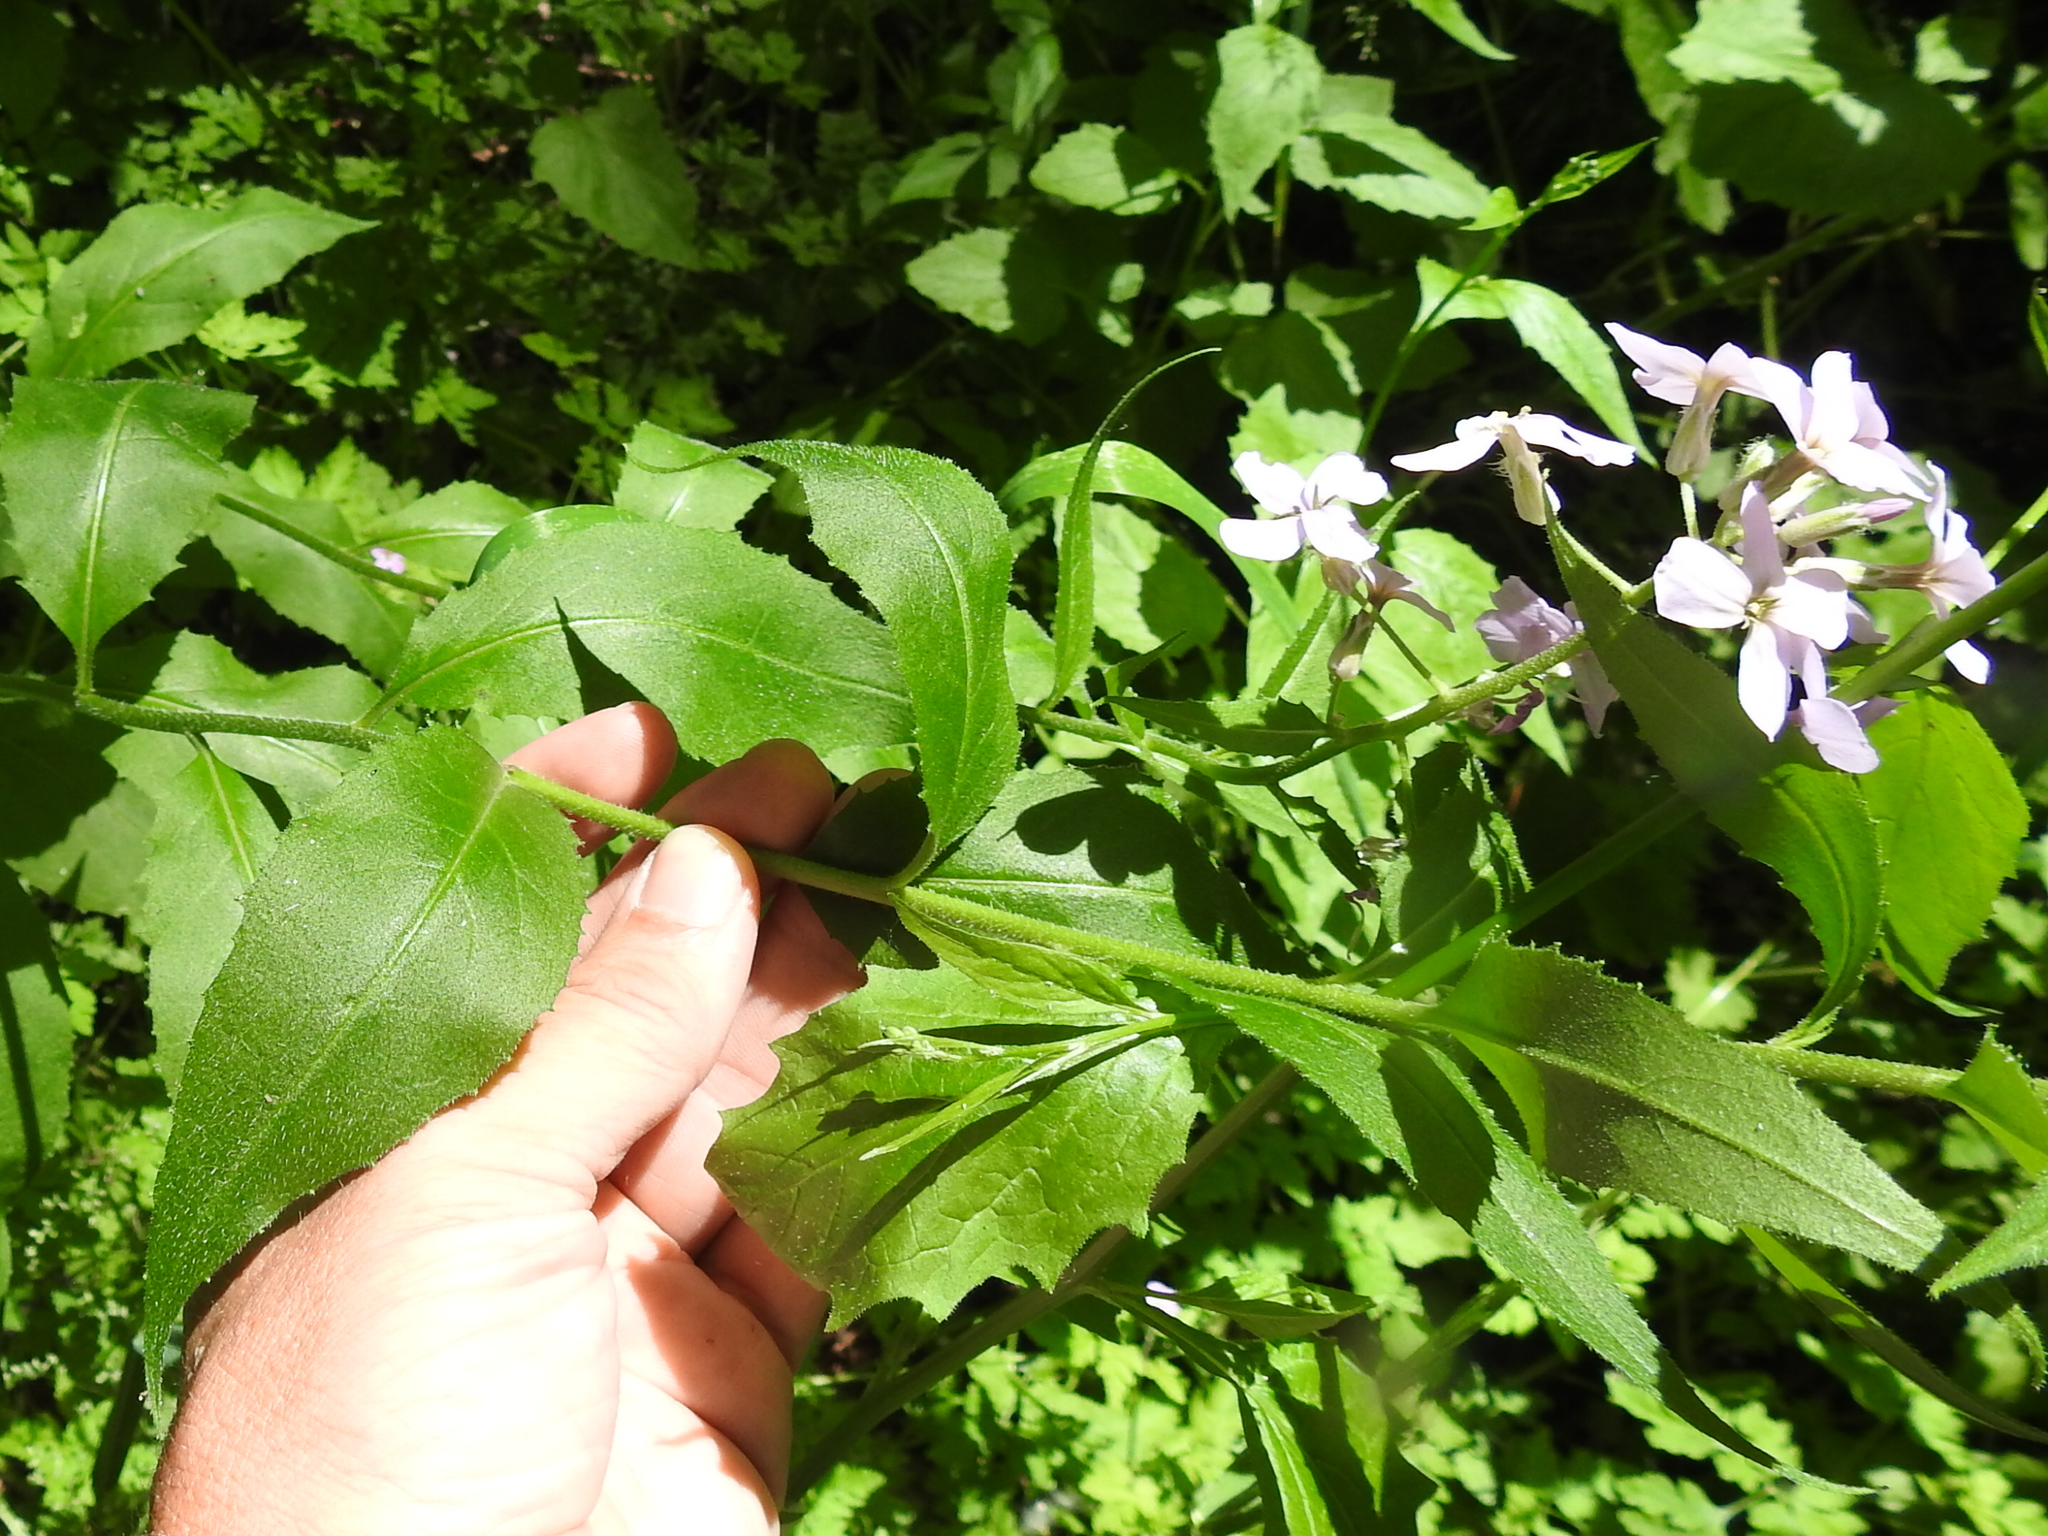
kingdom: Plantae
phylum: Tracheophyta
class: Magnoliopsida
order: Brassicales
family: Brassicaceae
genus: Hesperis
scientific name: Hesperis matronalis
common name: Dame's-violet
